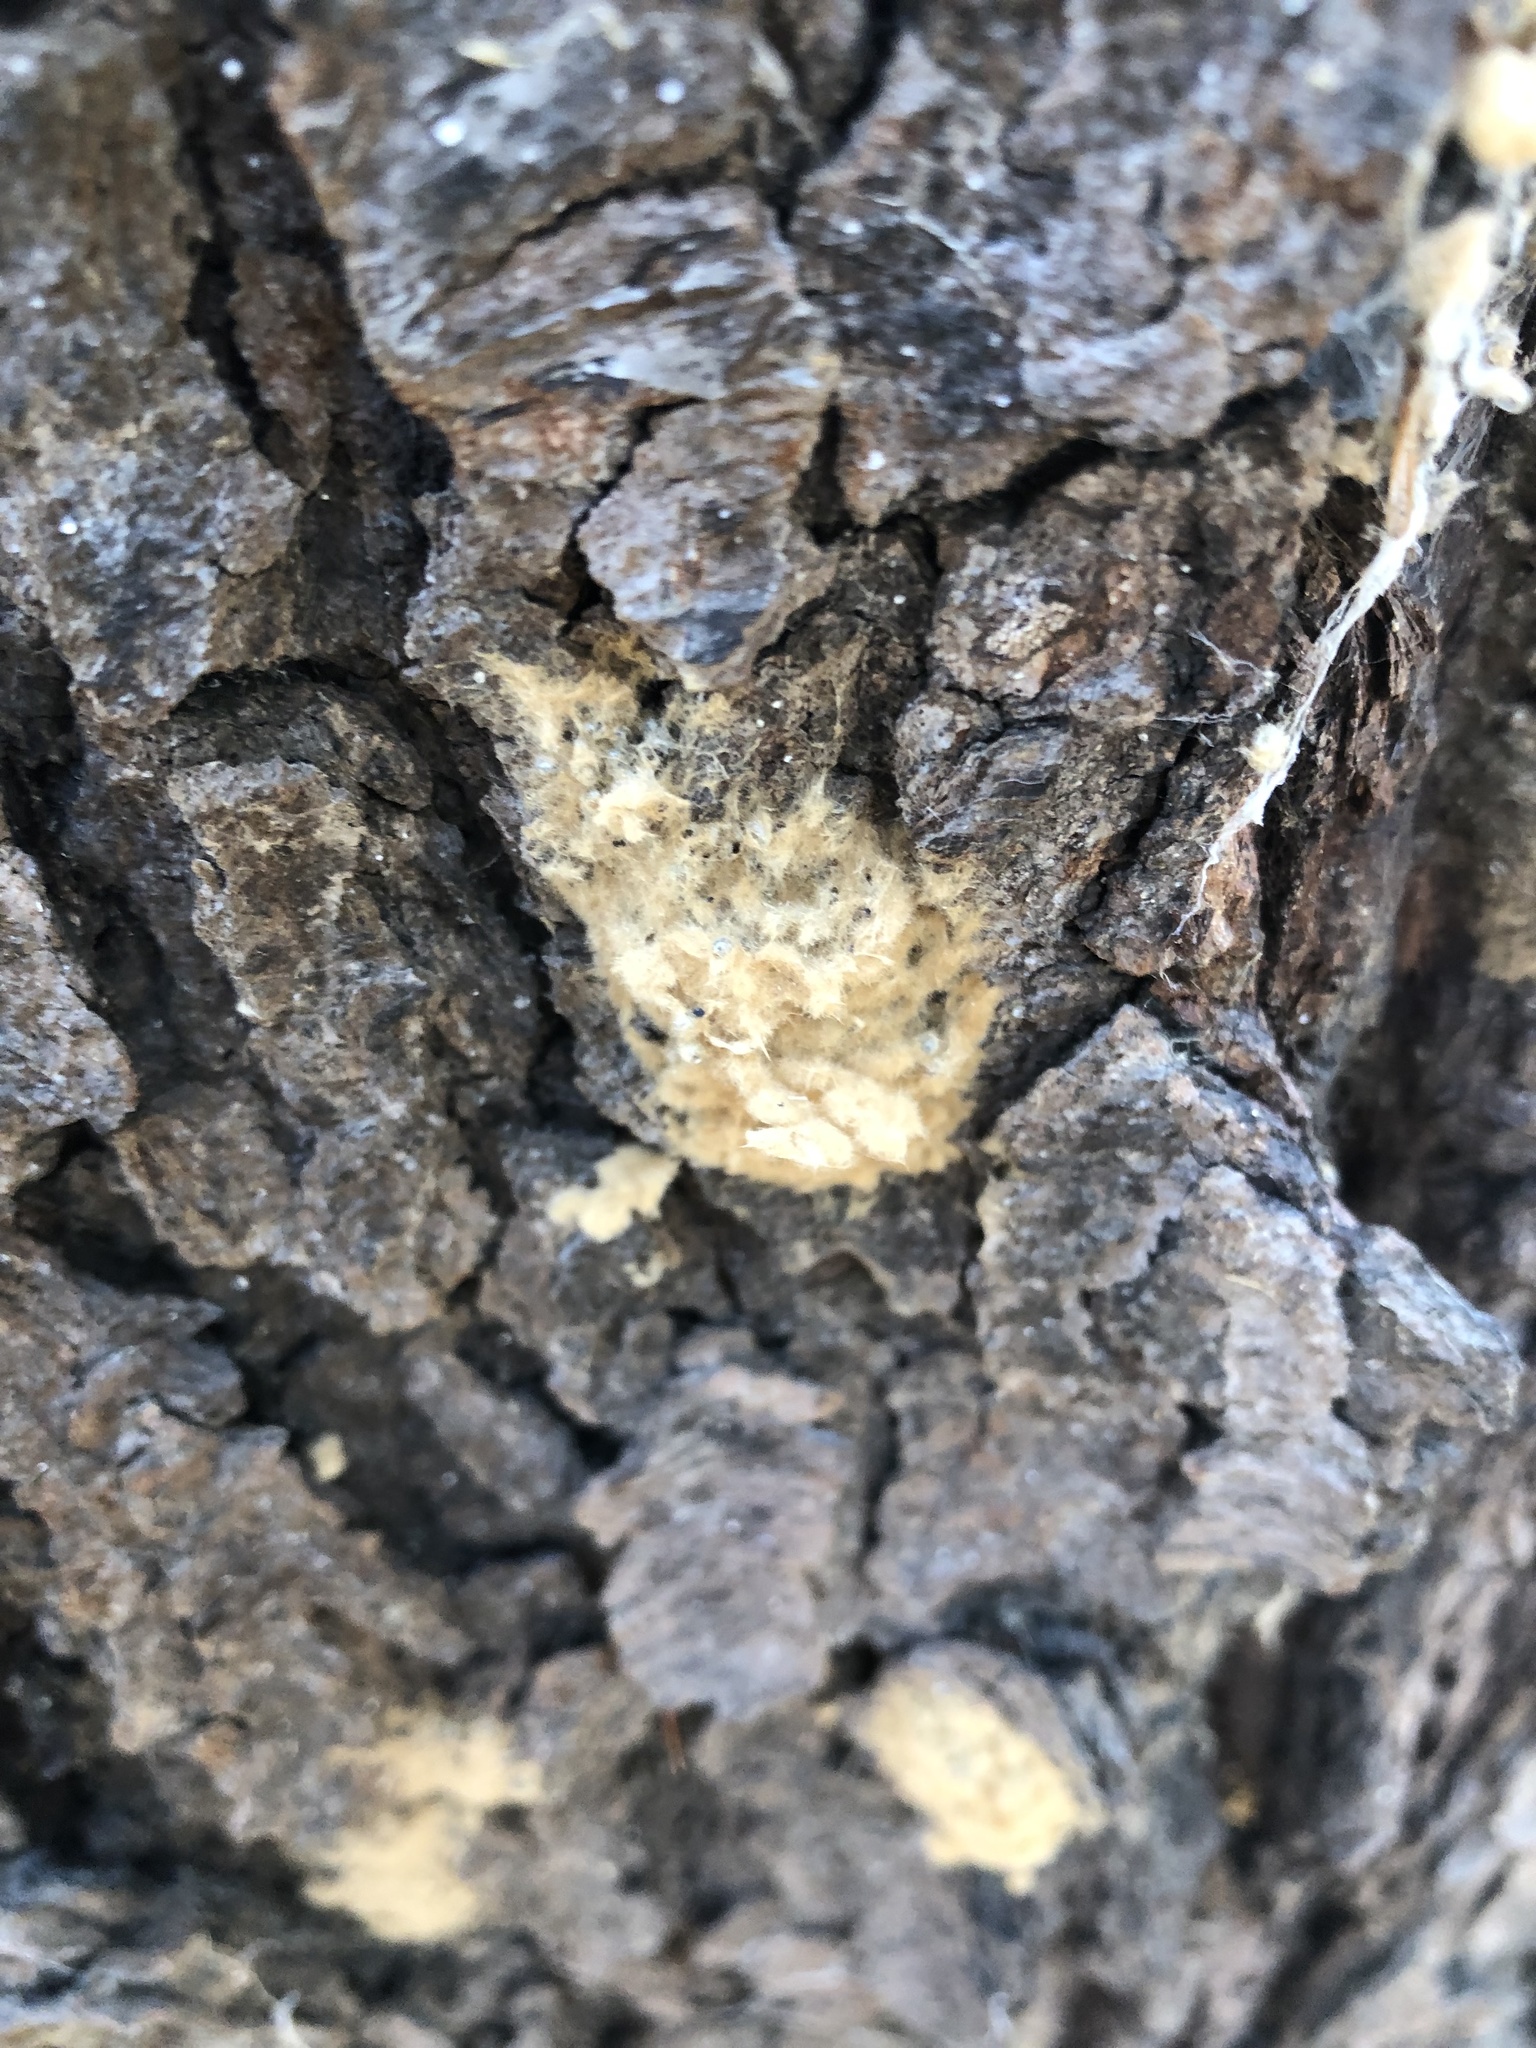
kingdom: Animalia
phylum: Arthropoda
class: Insecta
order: Lepidoptera
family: Erebidae
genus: Lymantria
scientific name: Lymantria dispar
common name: Gypsy moth
